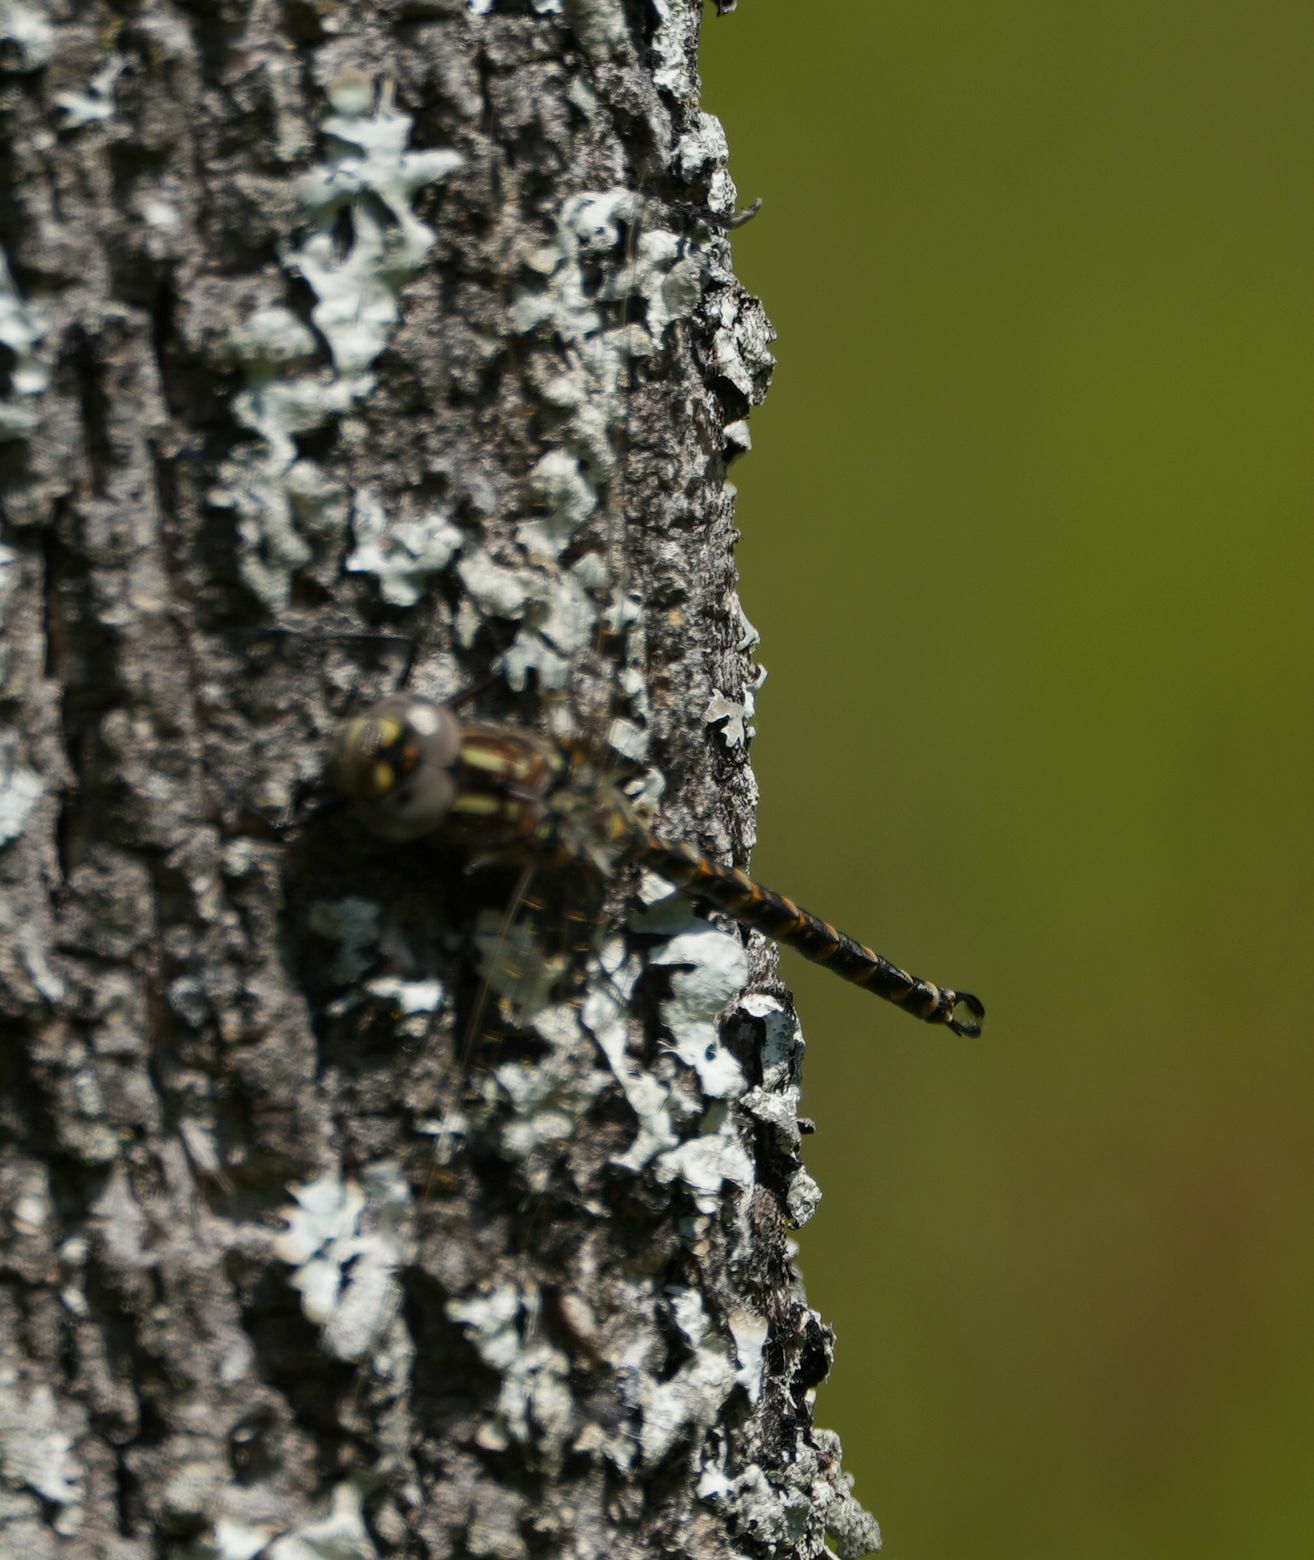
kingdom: Animalia
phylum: Arthropoda
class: Insecta
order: Odonata
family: Aeshnidae
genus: Gomphaeschna
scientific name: Gomphaeschna furcillata
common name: Harlequin darner
